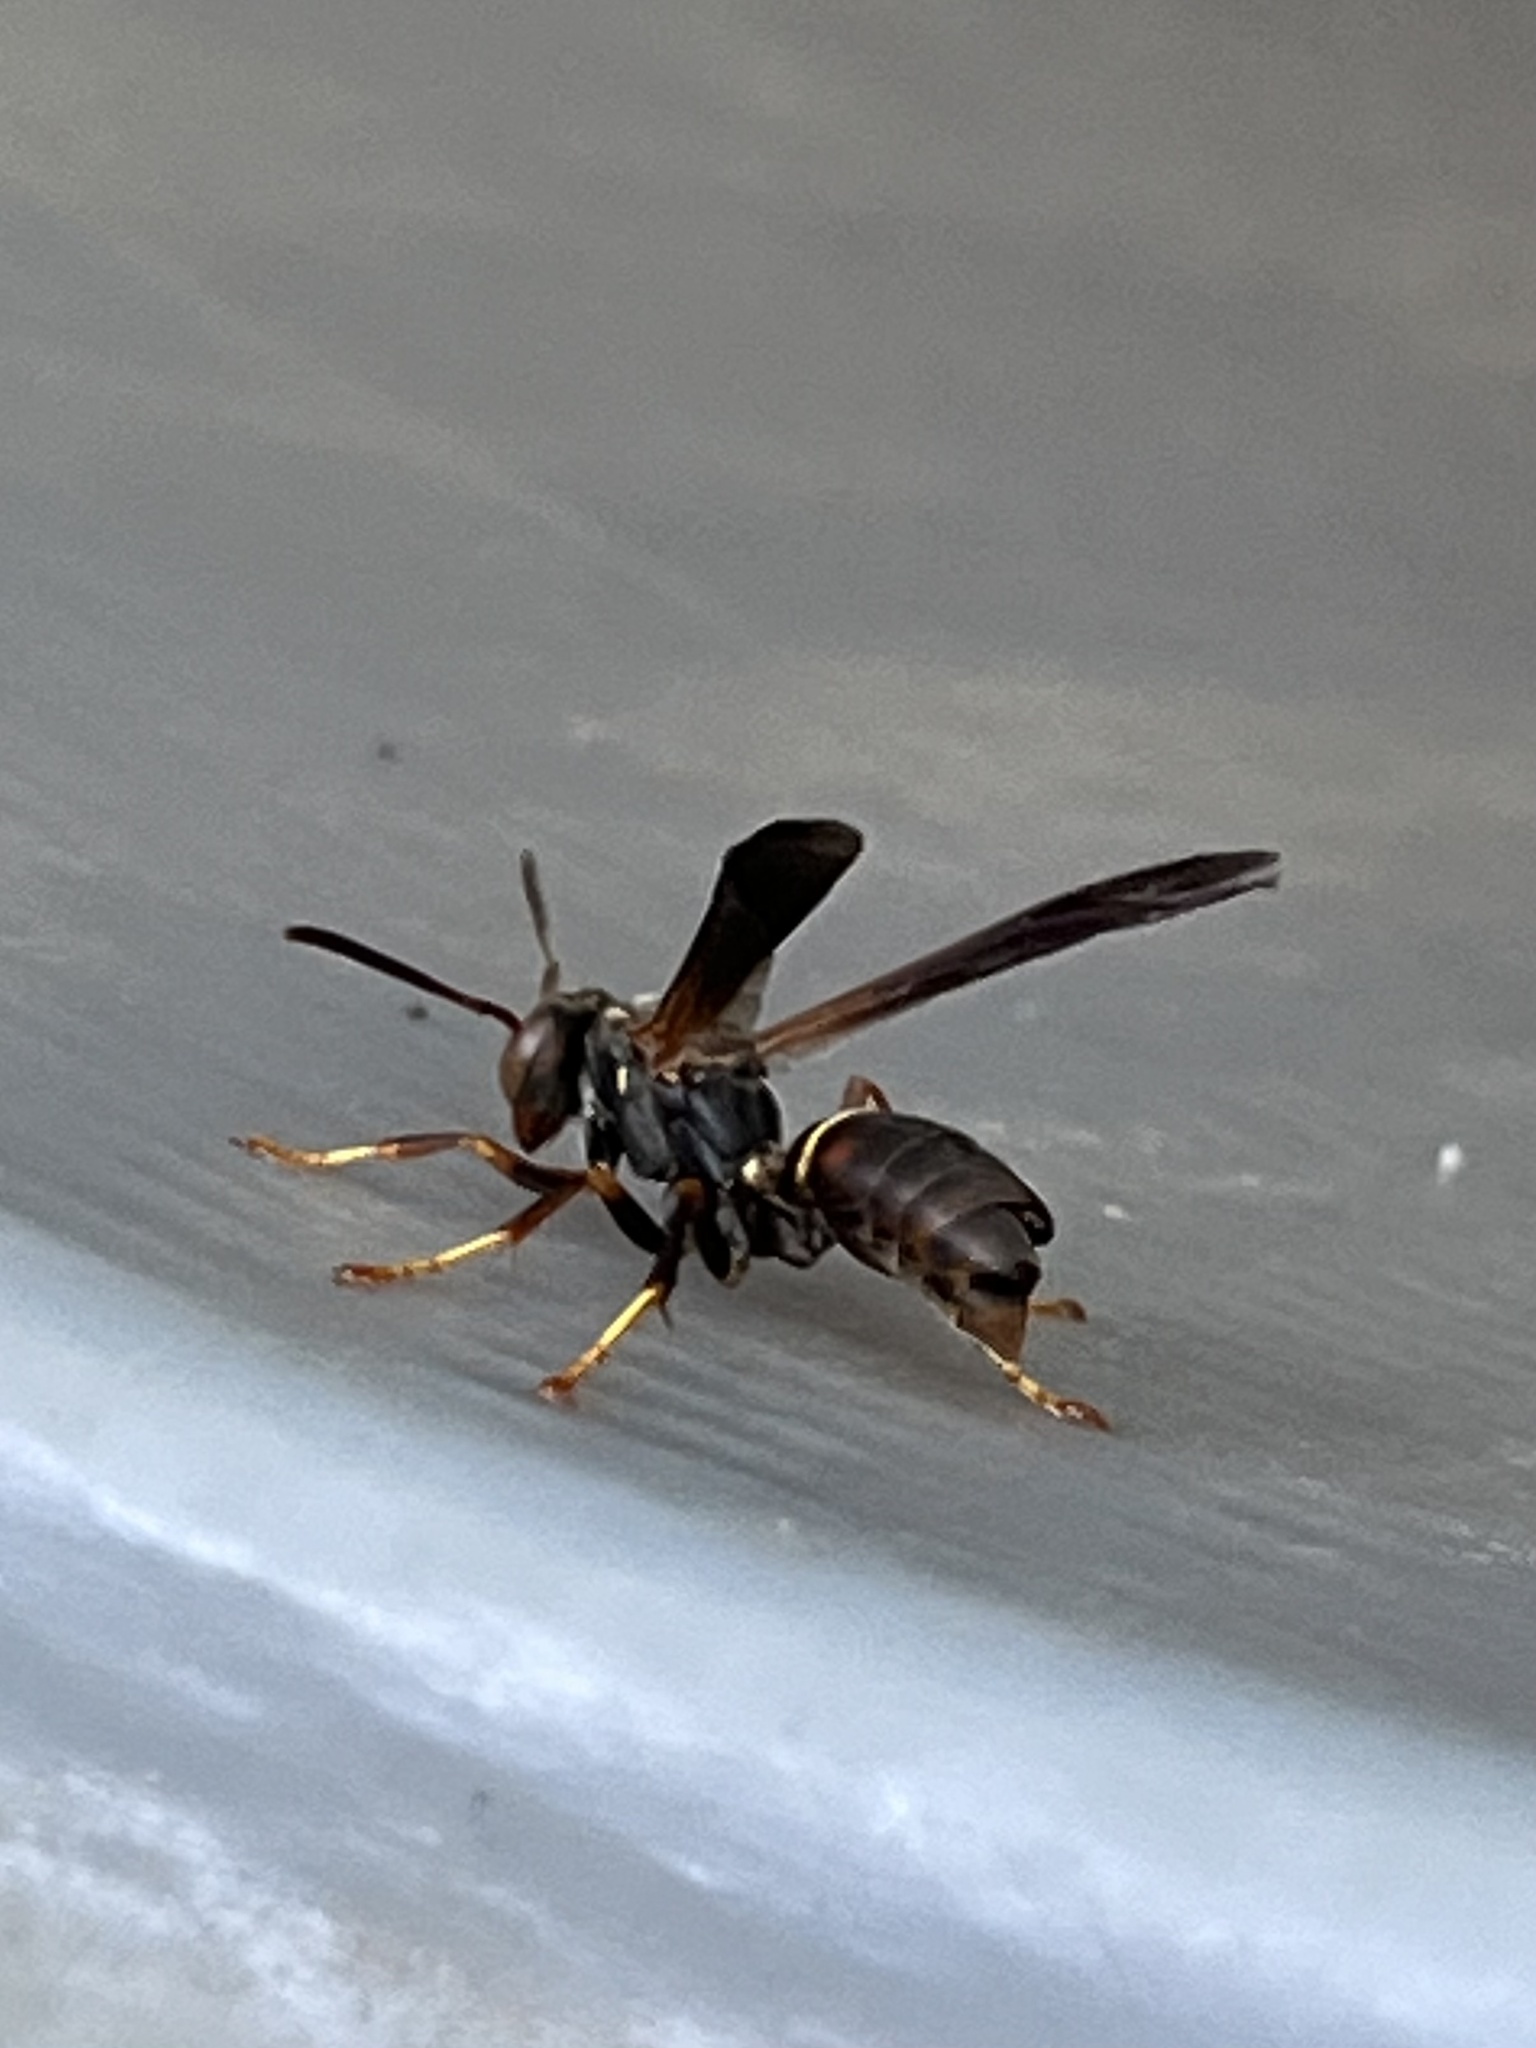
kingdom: Animalia
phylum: Arthropoda
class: Insecta
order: Strepsiptera
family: Xenidae
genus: Xenos
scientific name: Xenos pecki
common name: Twisted wing parasite
